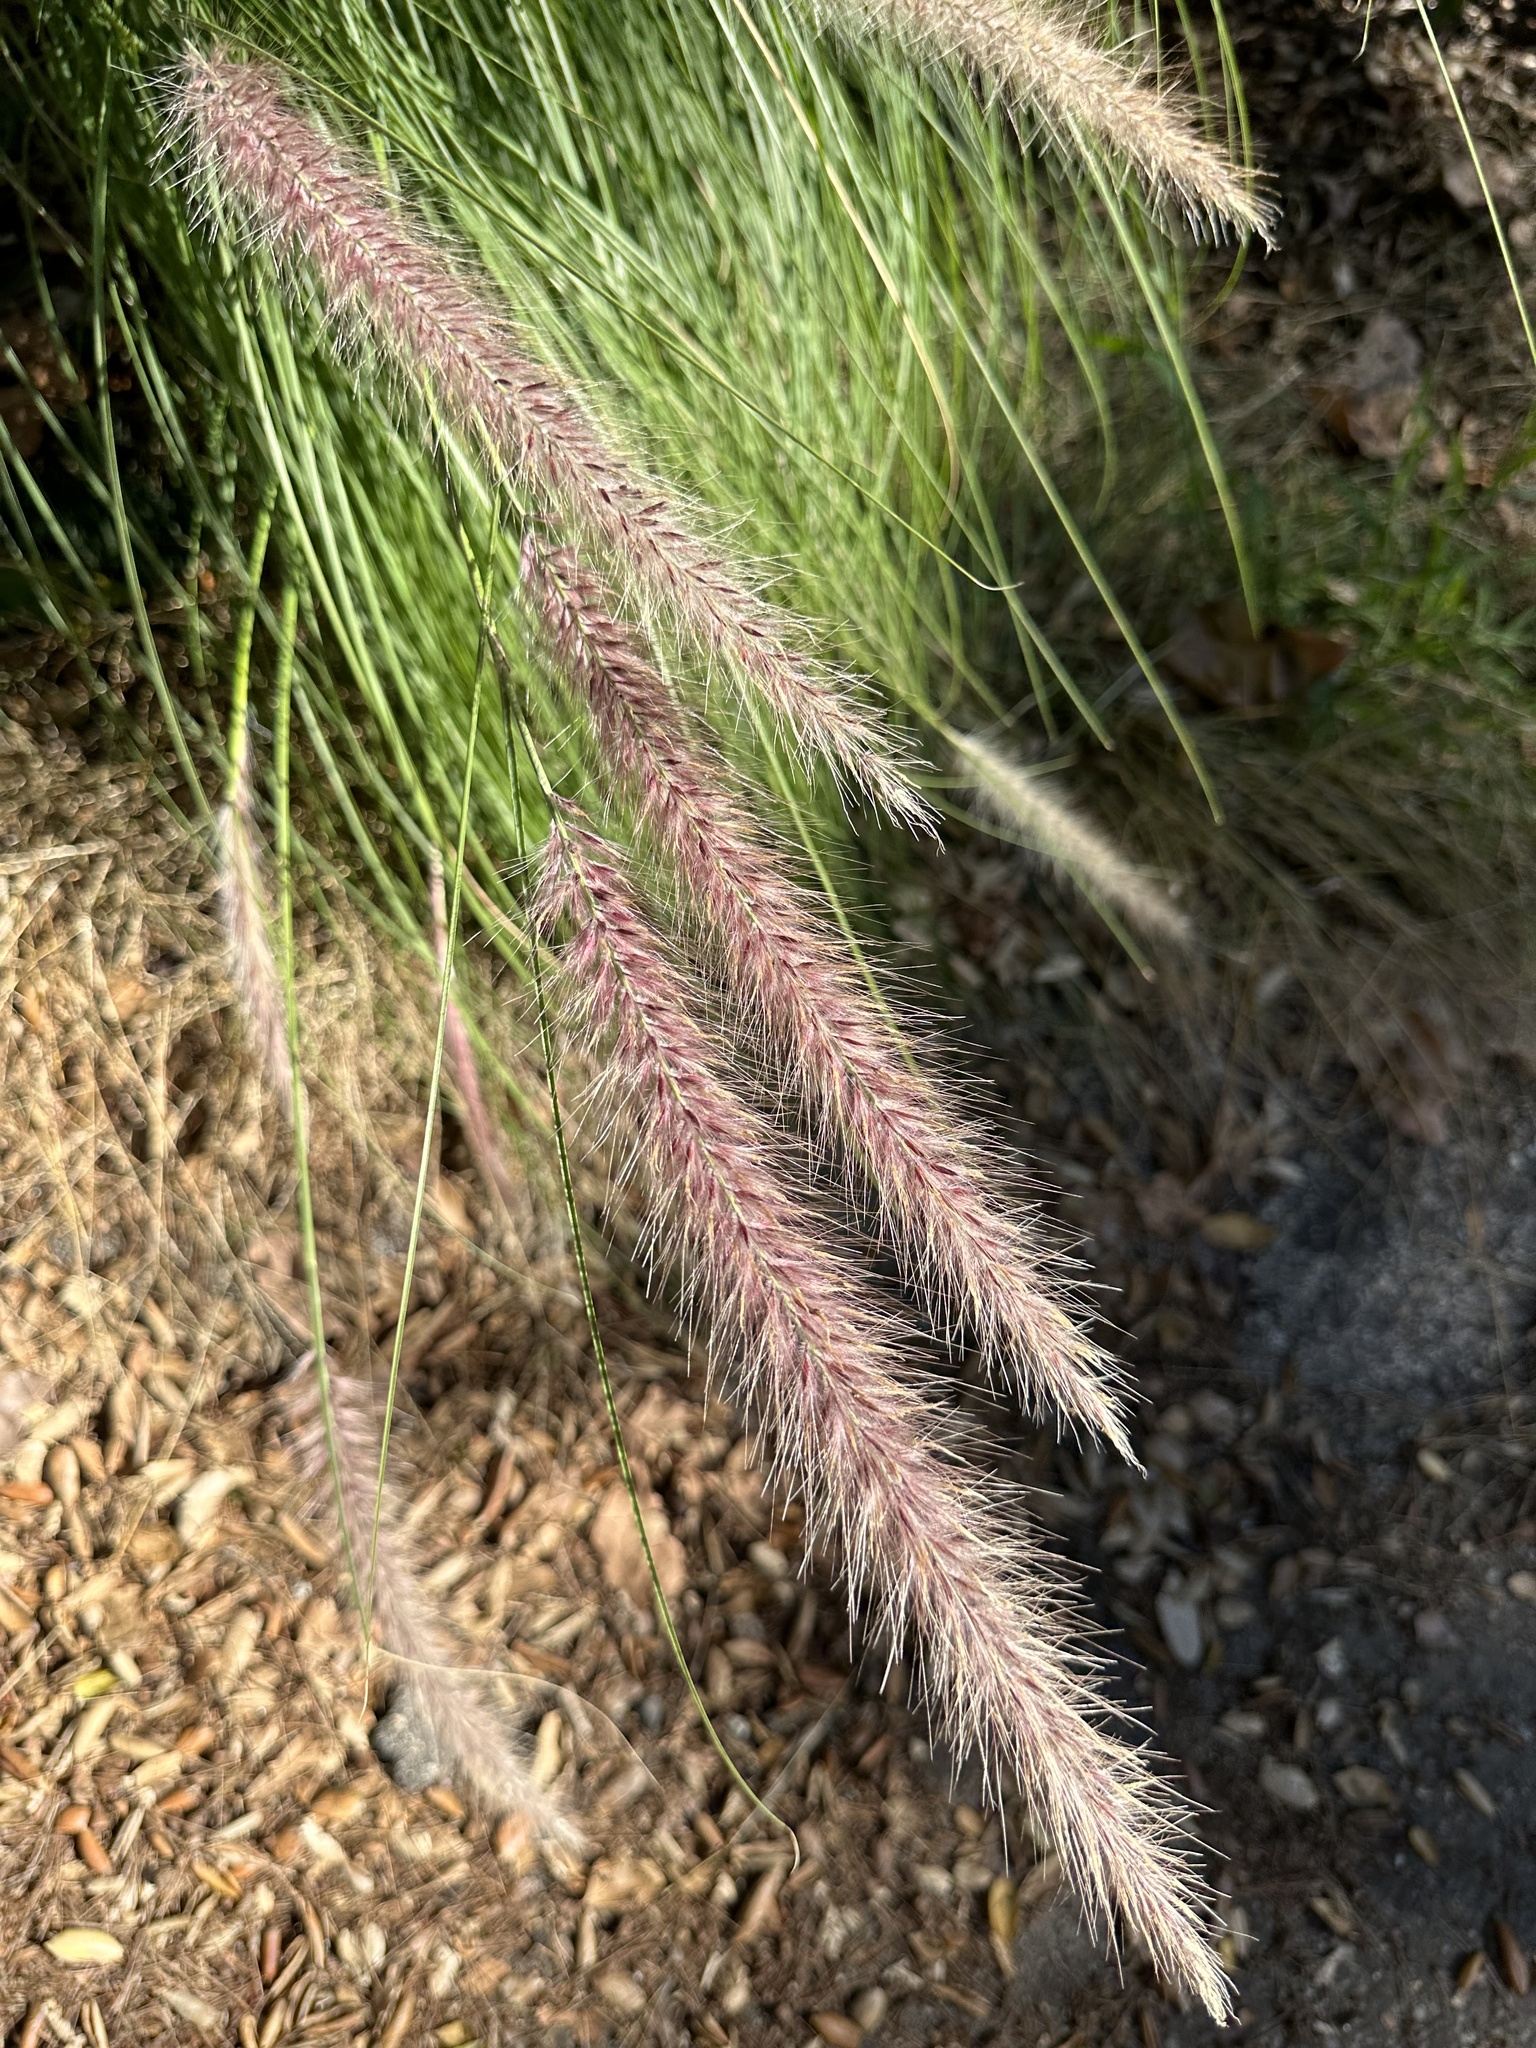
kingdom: Plantae
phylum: Tracheophyta
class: Liliopsida
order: Poales
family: Poaceae
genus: Cenchrus
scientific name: Cenchrus setaceus
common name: Crimson fountaingrass
